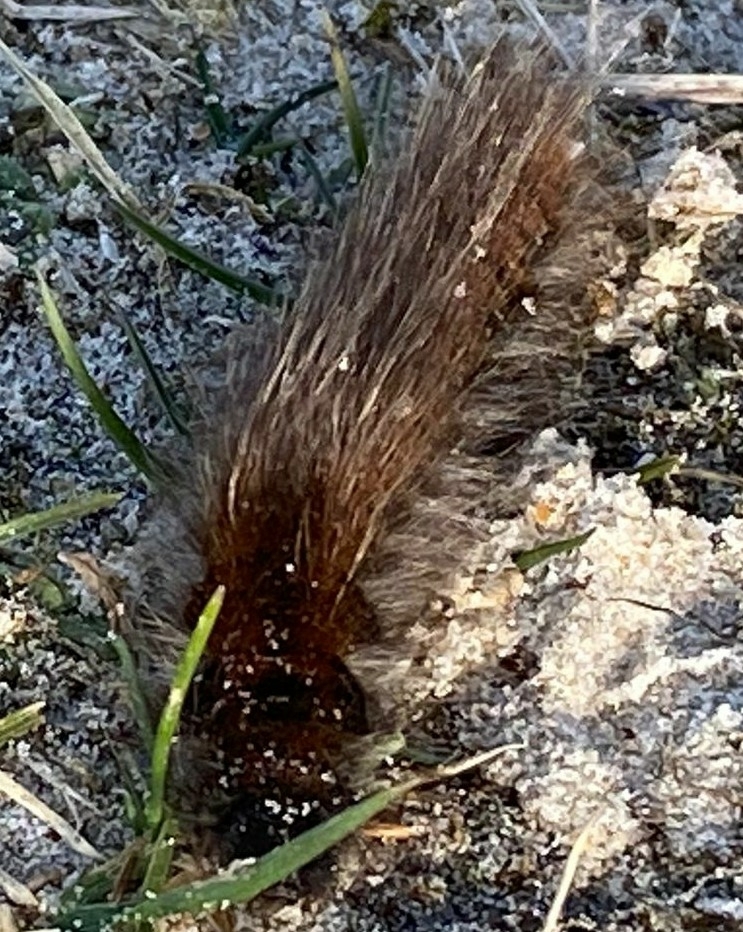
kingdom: Animalia
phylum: Arthropoda
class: Insecta
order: Lepidoptera
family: Lasiocampidae
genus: Macrothylacia
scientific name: Macrothylacia rubi
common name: Fox moth
